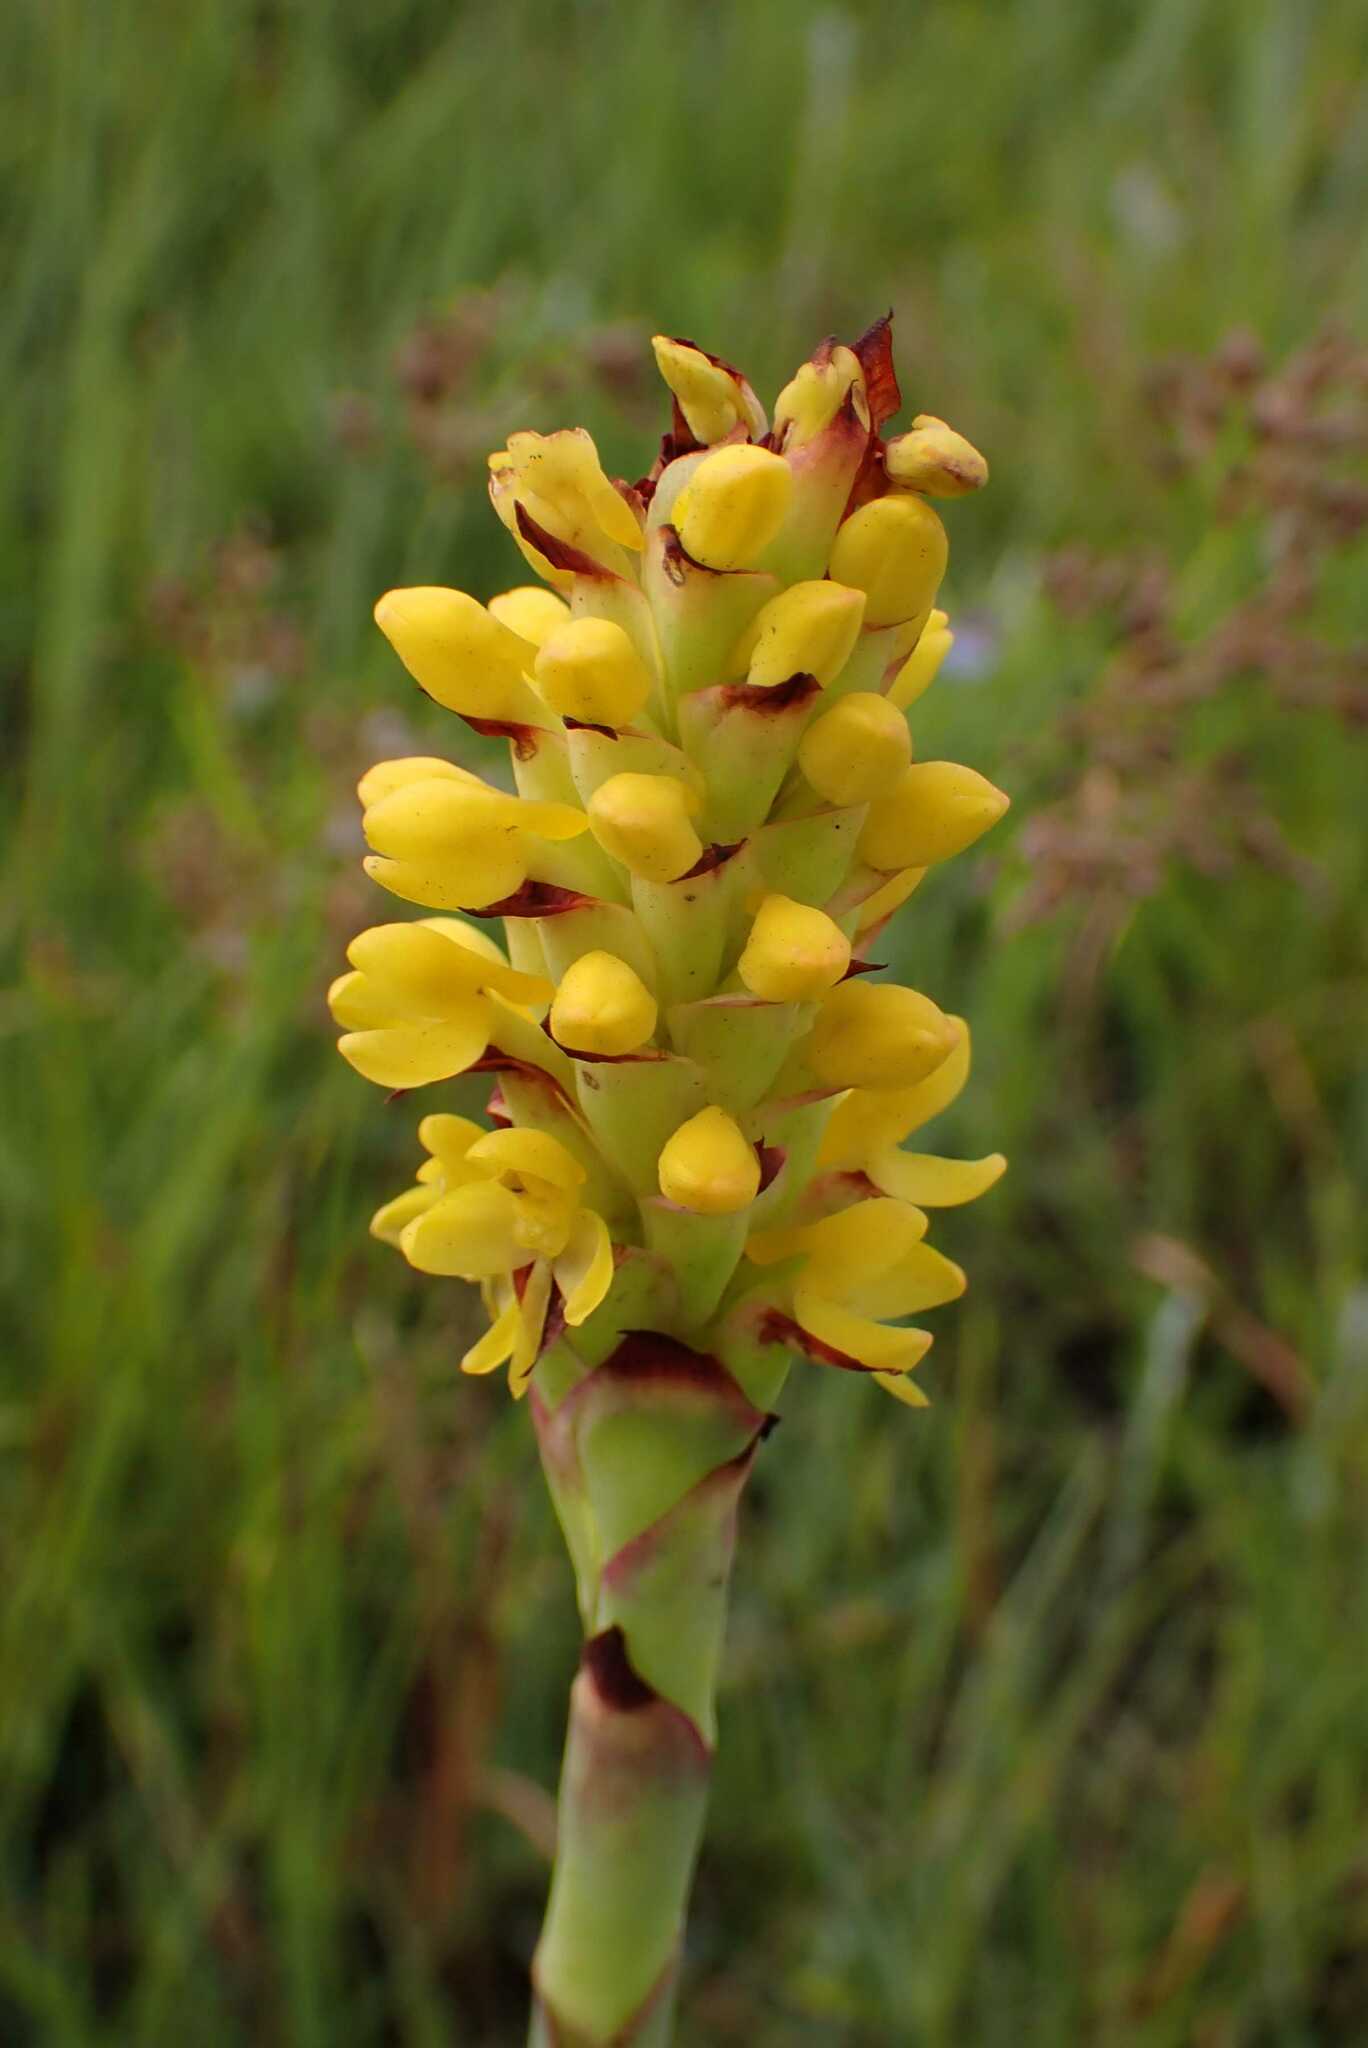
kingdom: Plantae
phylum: Tracheophyta
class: Liliopsida
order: Asparagales
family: Orchidaceae
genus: Disa
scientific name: Disa woodii
